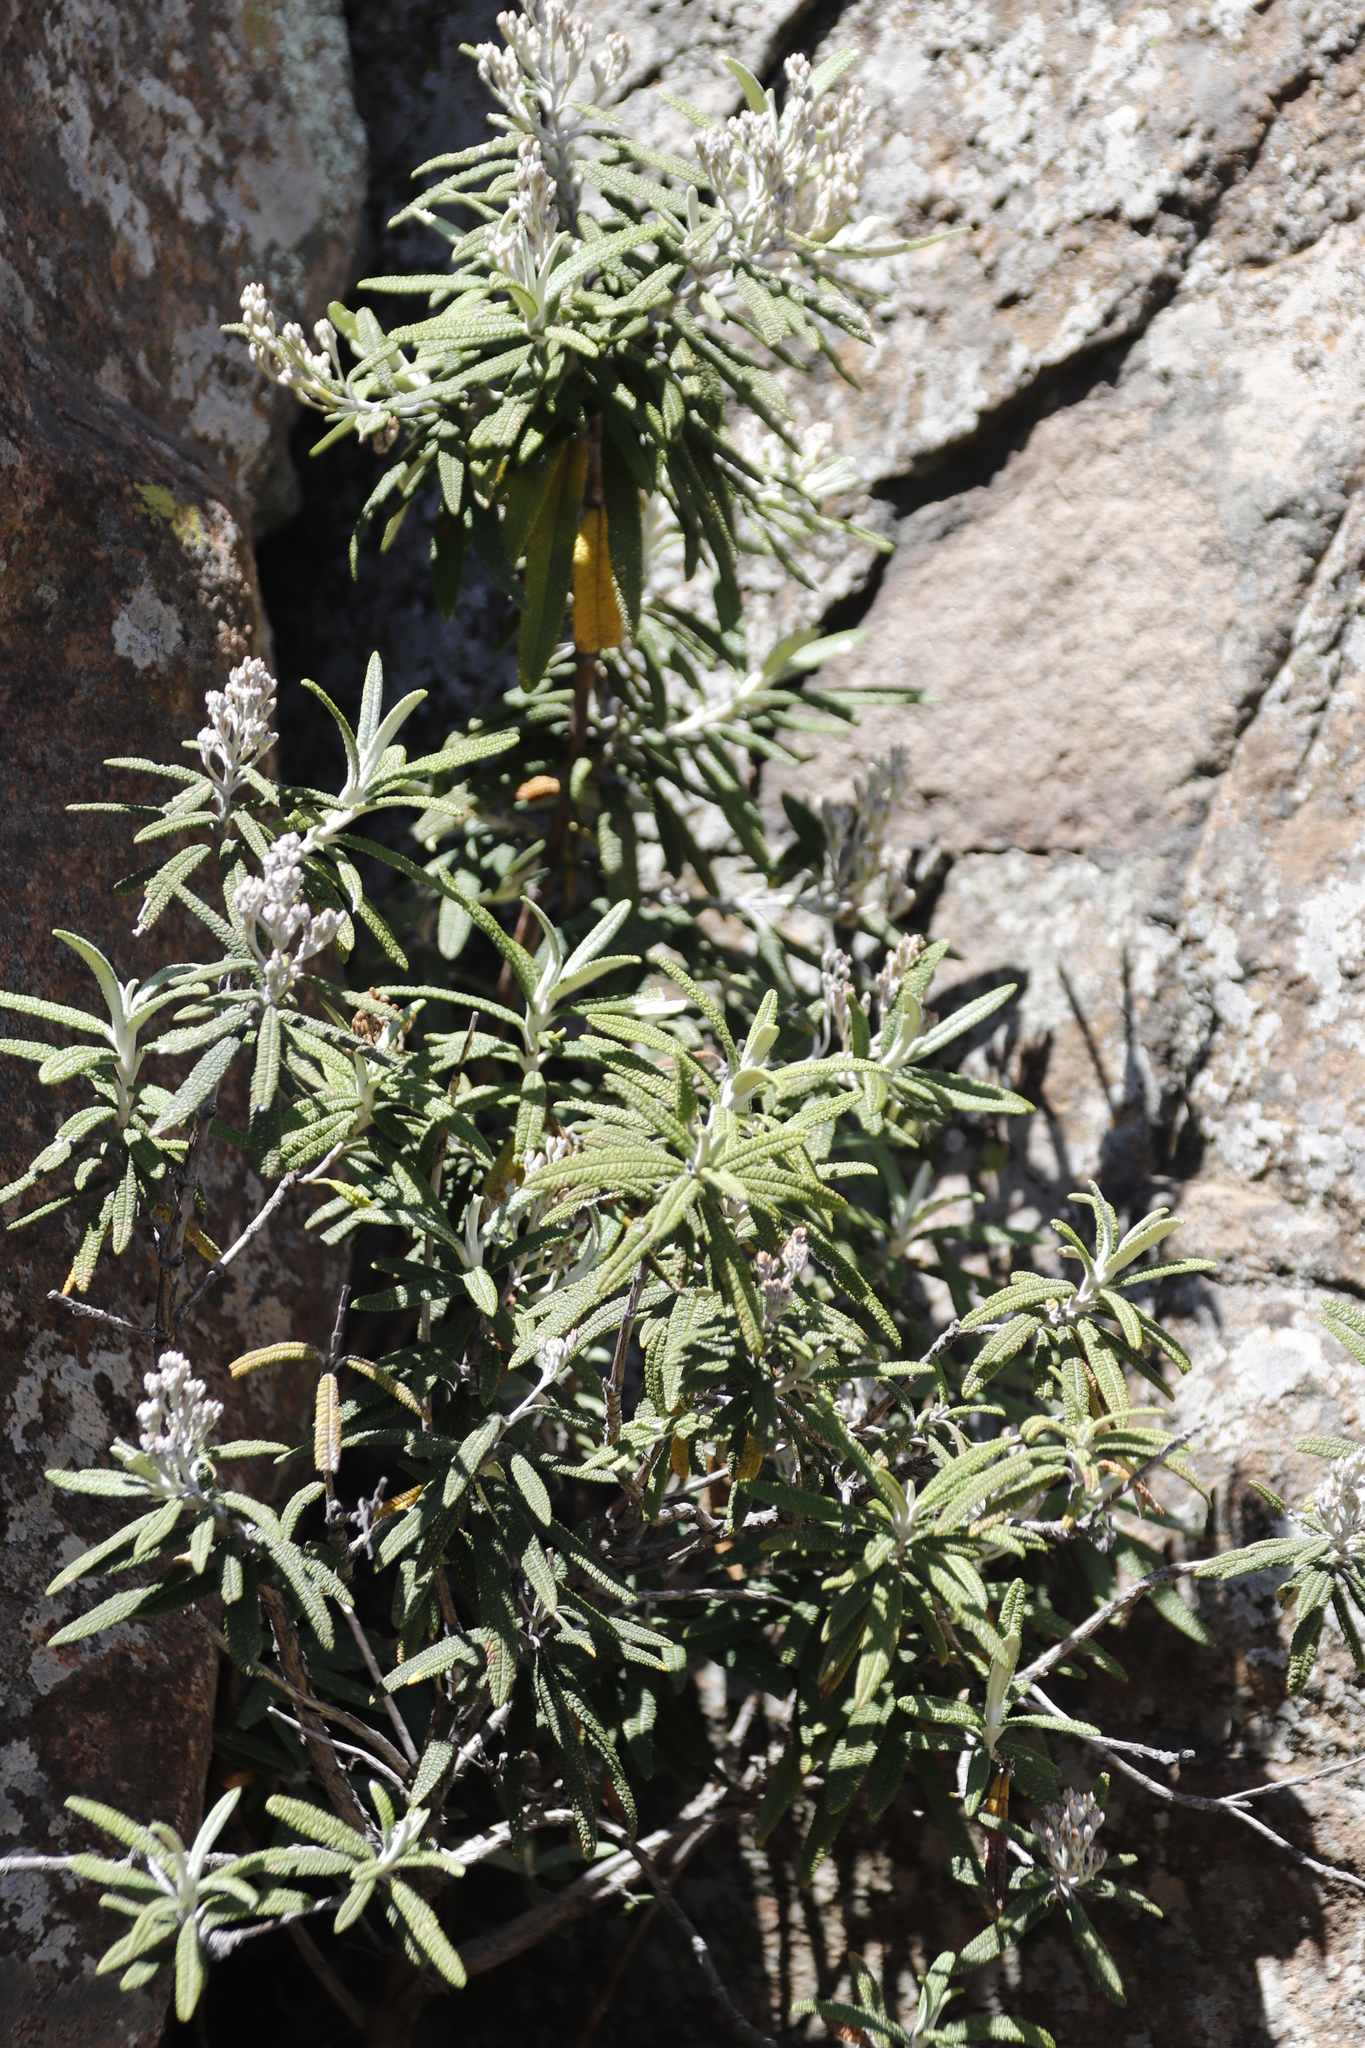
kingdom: Plantae
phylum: Tracheophyta
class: Magnoliopsida
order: Lamiales
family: Scrophulariaceae
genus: Buddleja
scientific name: Buddleja loricata
